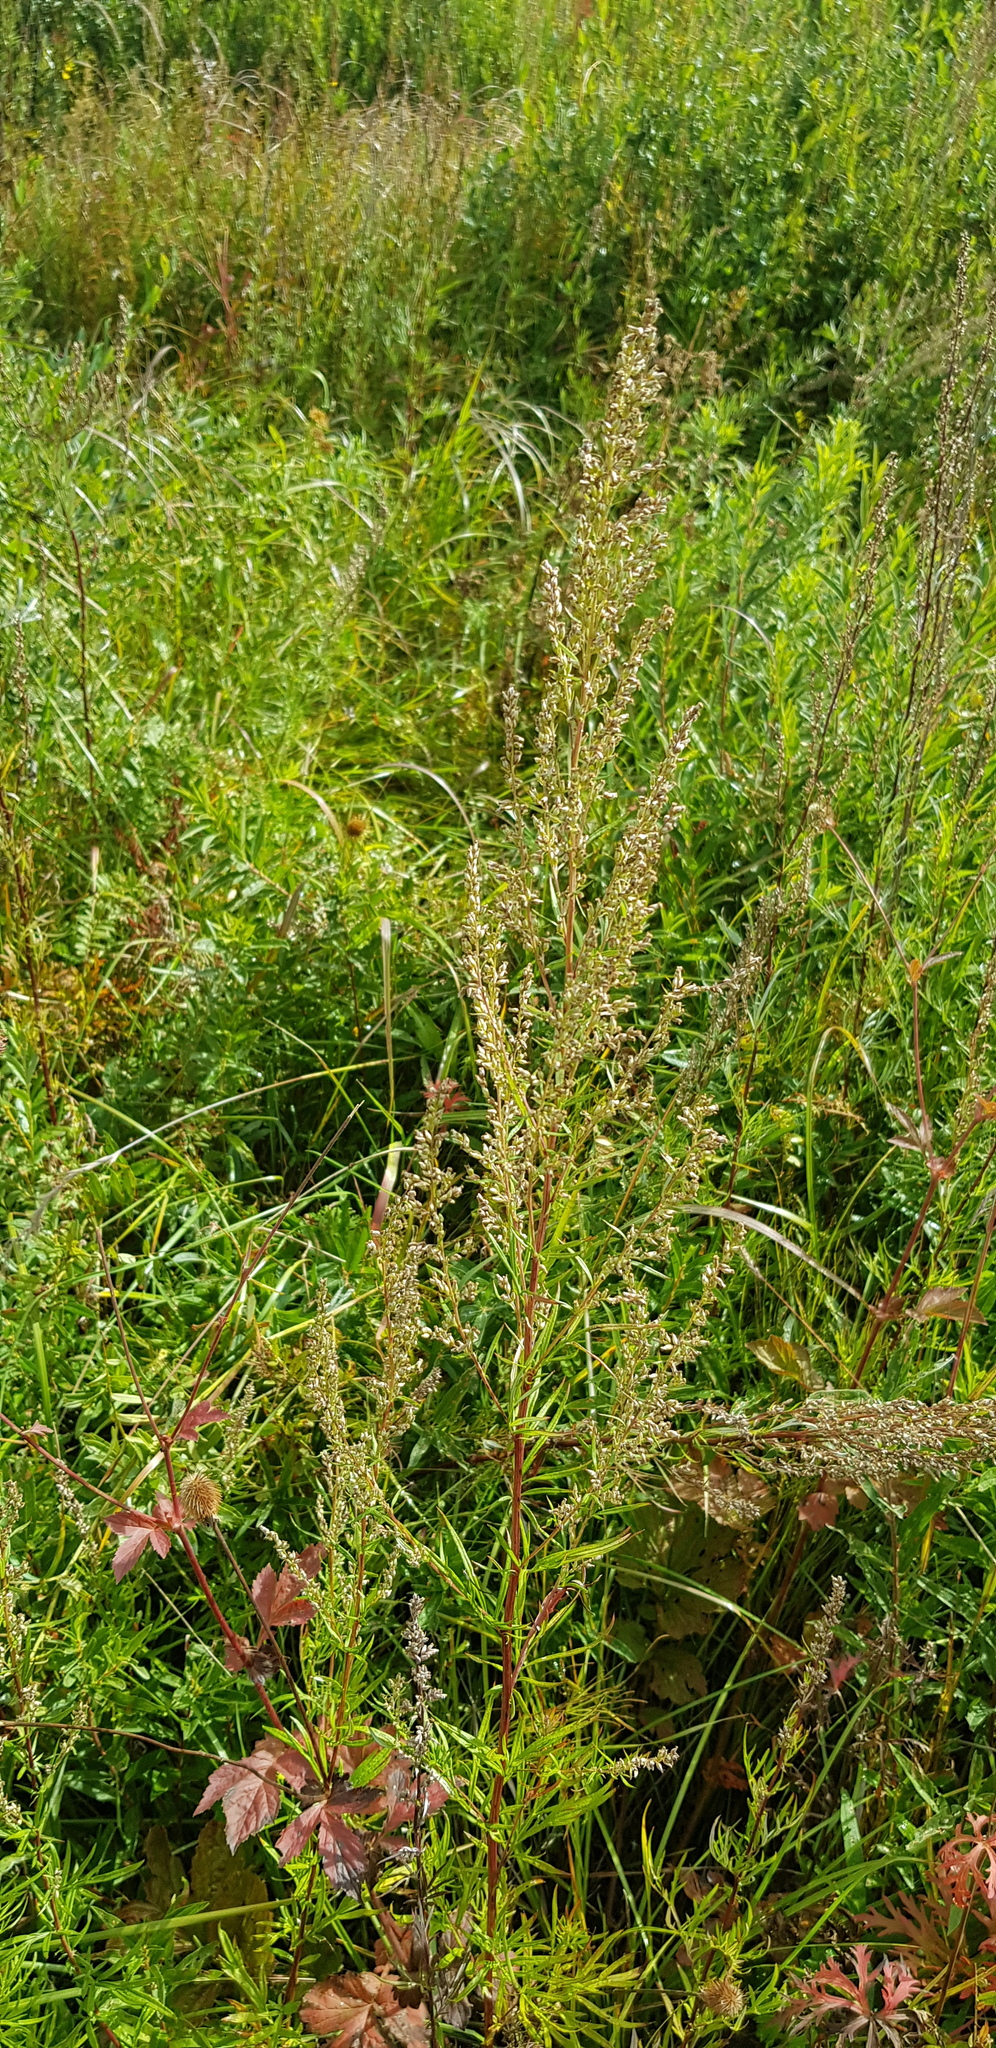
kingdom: Plantae
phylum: Tracheophyta
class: Magnoliopsida
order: Asterales
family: Asteraceae
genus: Artemisia
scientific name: Artemisia integrifolia
